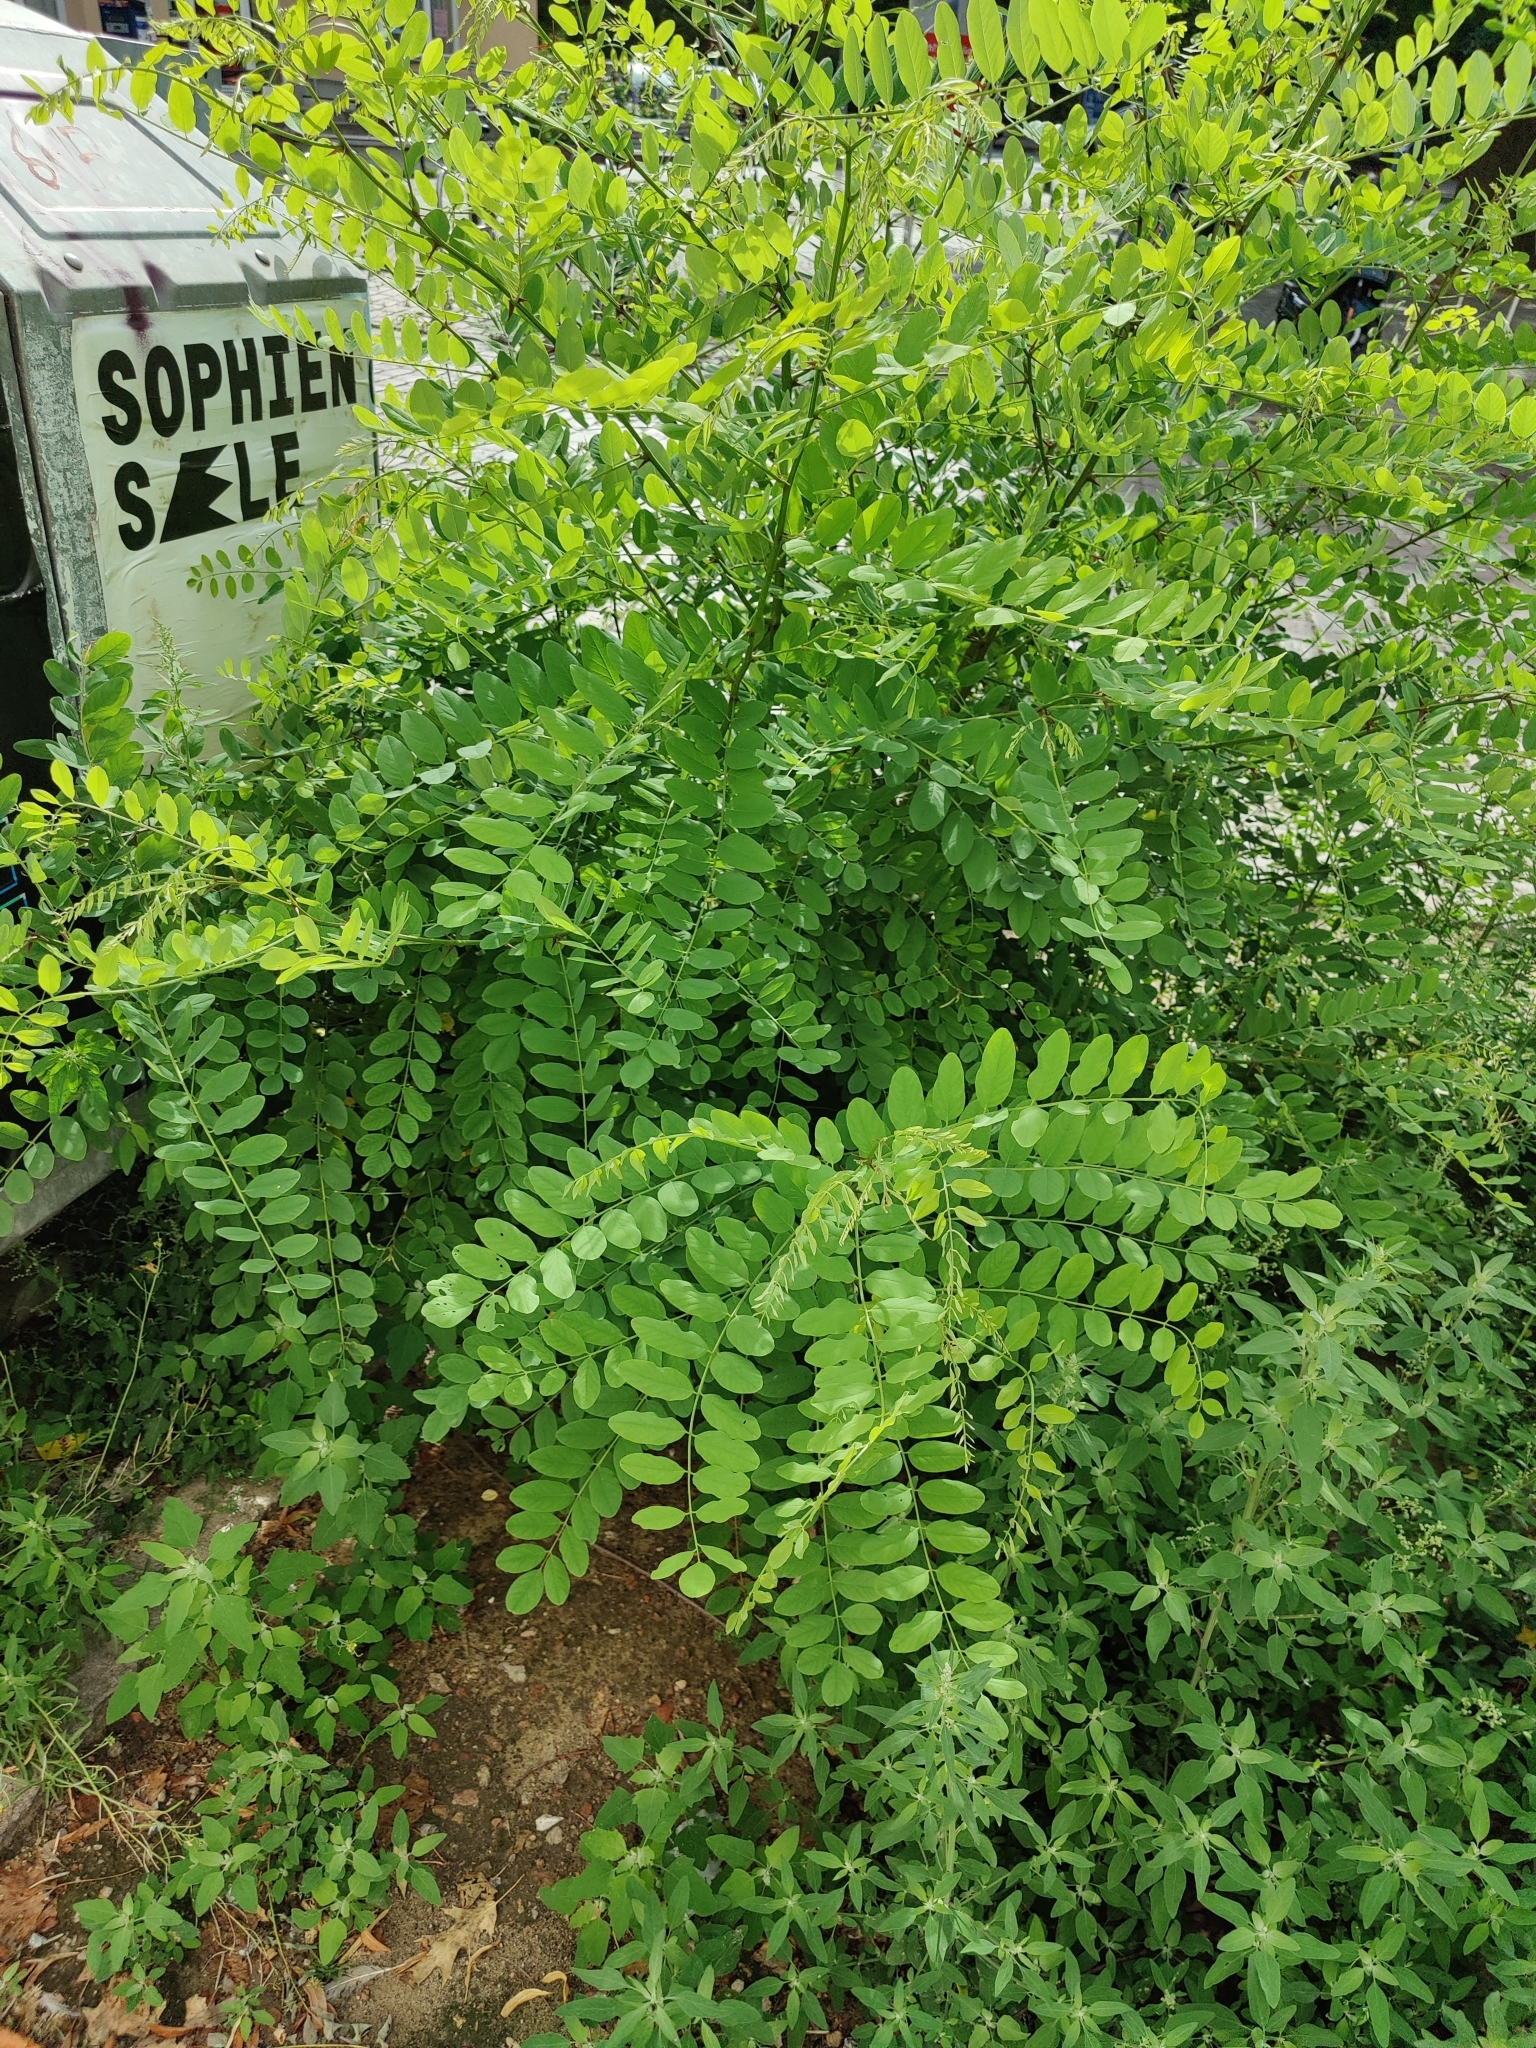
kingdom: Plantae
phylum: Tracheophyta
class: Magnoliopsida
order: Fabales
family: Fabaceae
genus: Robinia
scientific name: Robinia pseudoacacia
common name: Black locust
